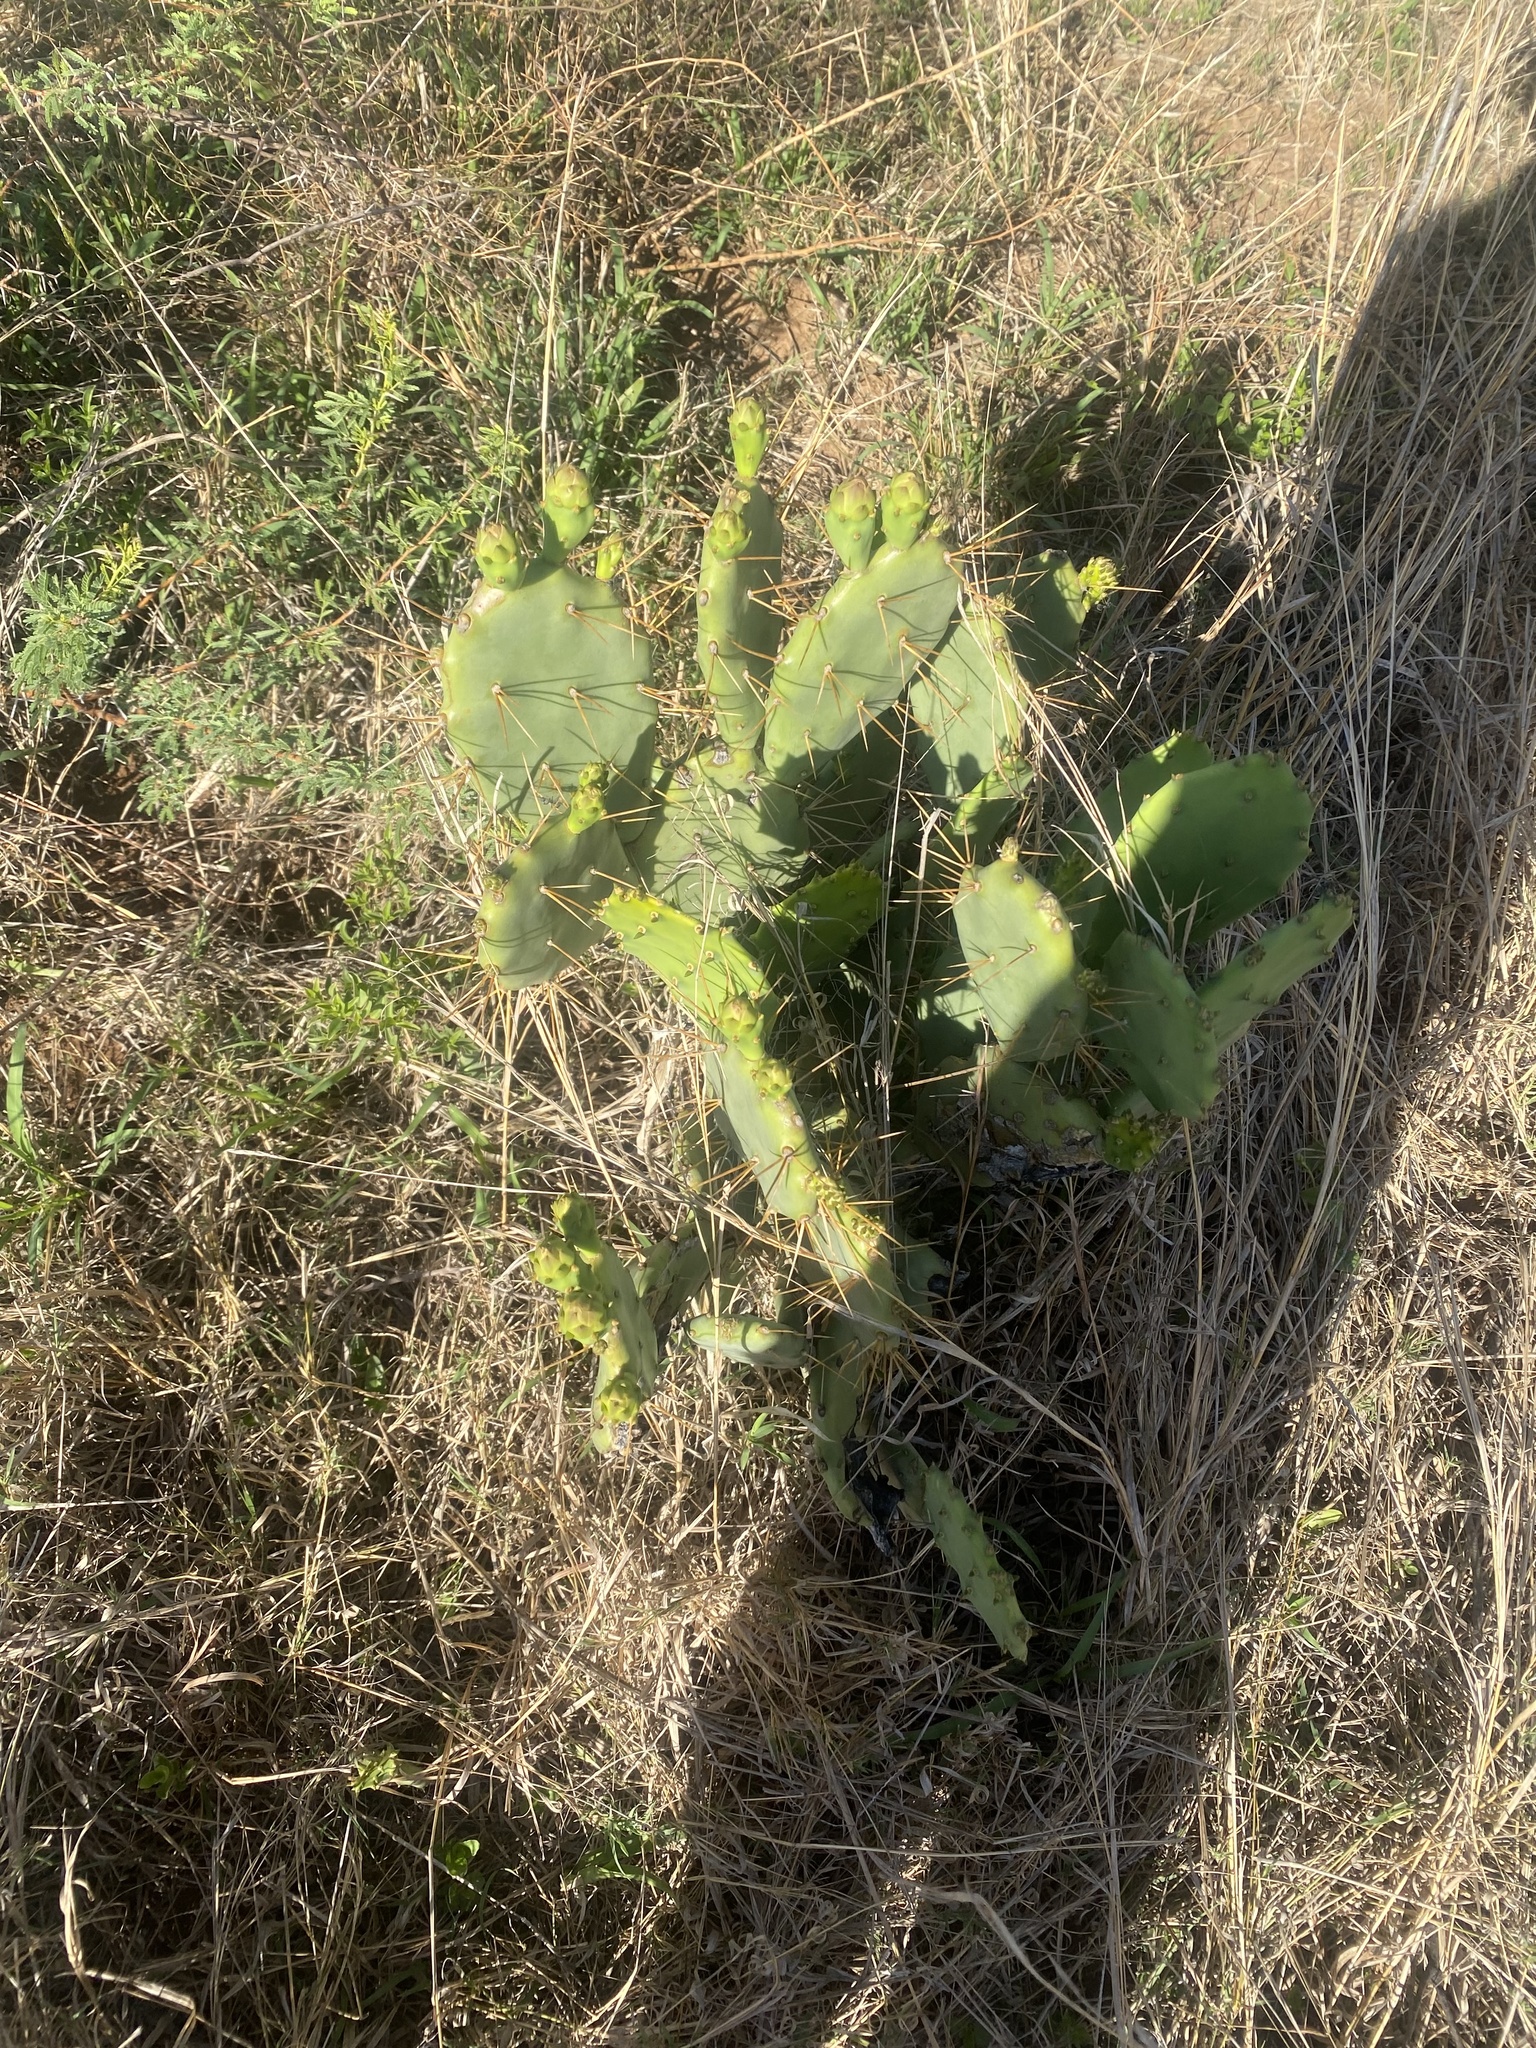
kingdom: Plantae
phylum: Tracheophyta
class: Magnoliopsida
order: Caryophyllales
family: Cactaceae
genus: Opuntia
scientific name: Opuntia stricta
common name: Erect pricklypear
